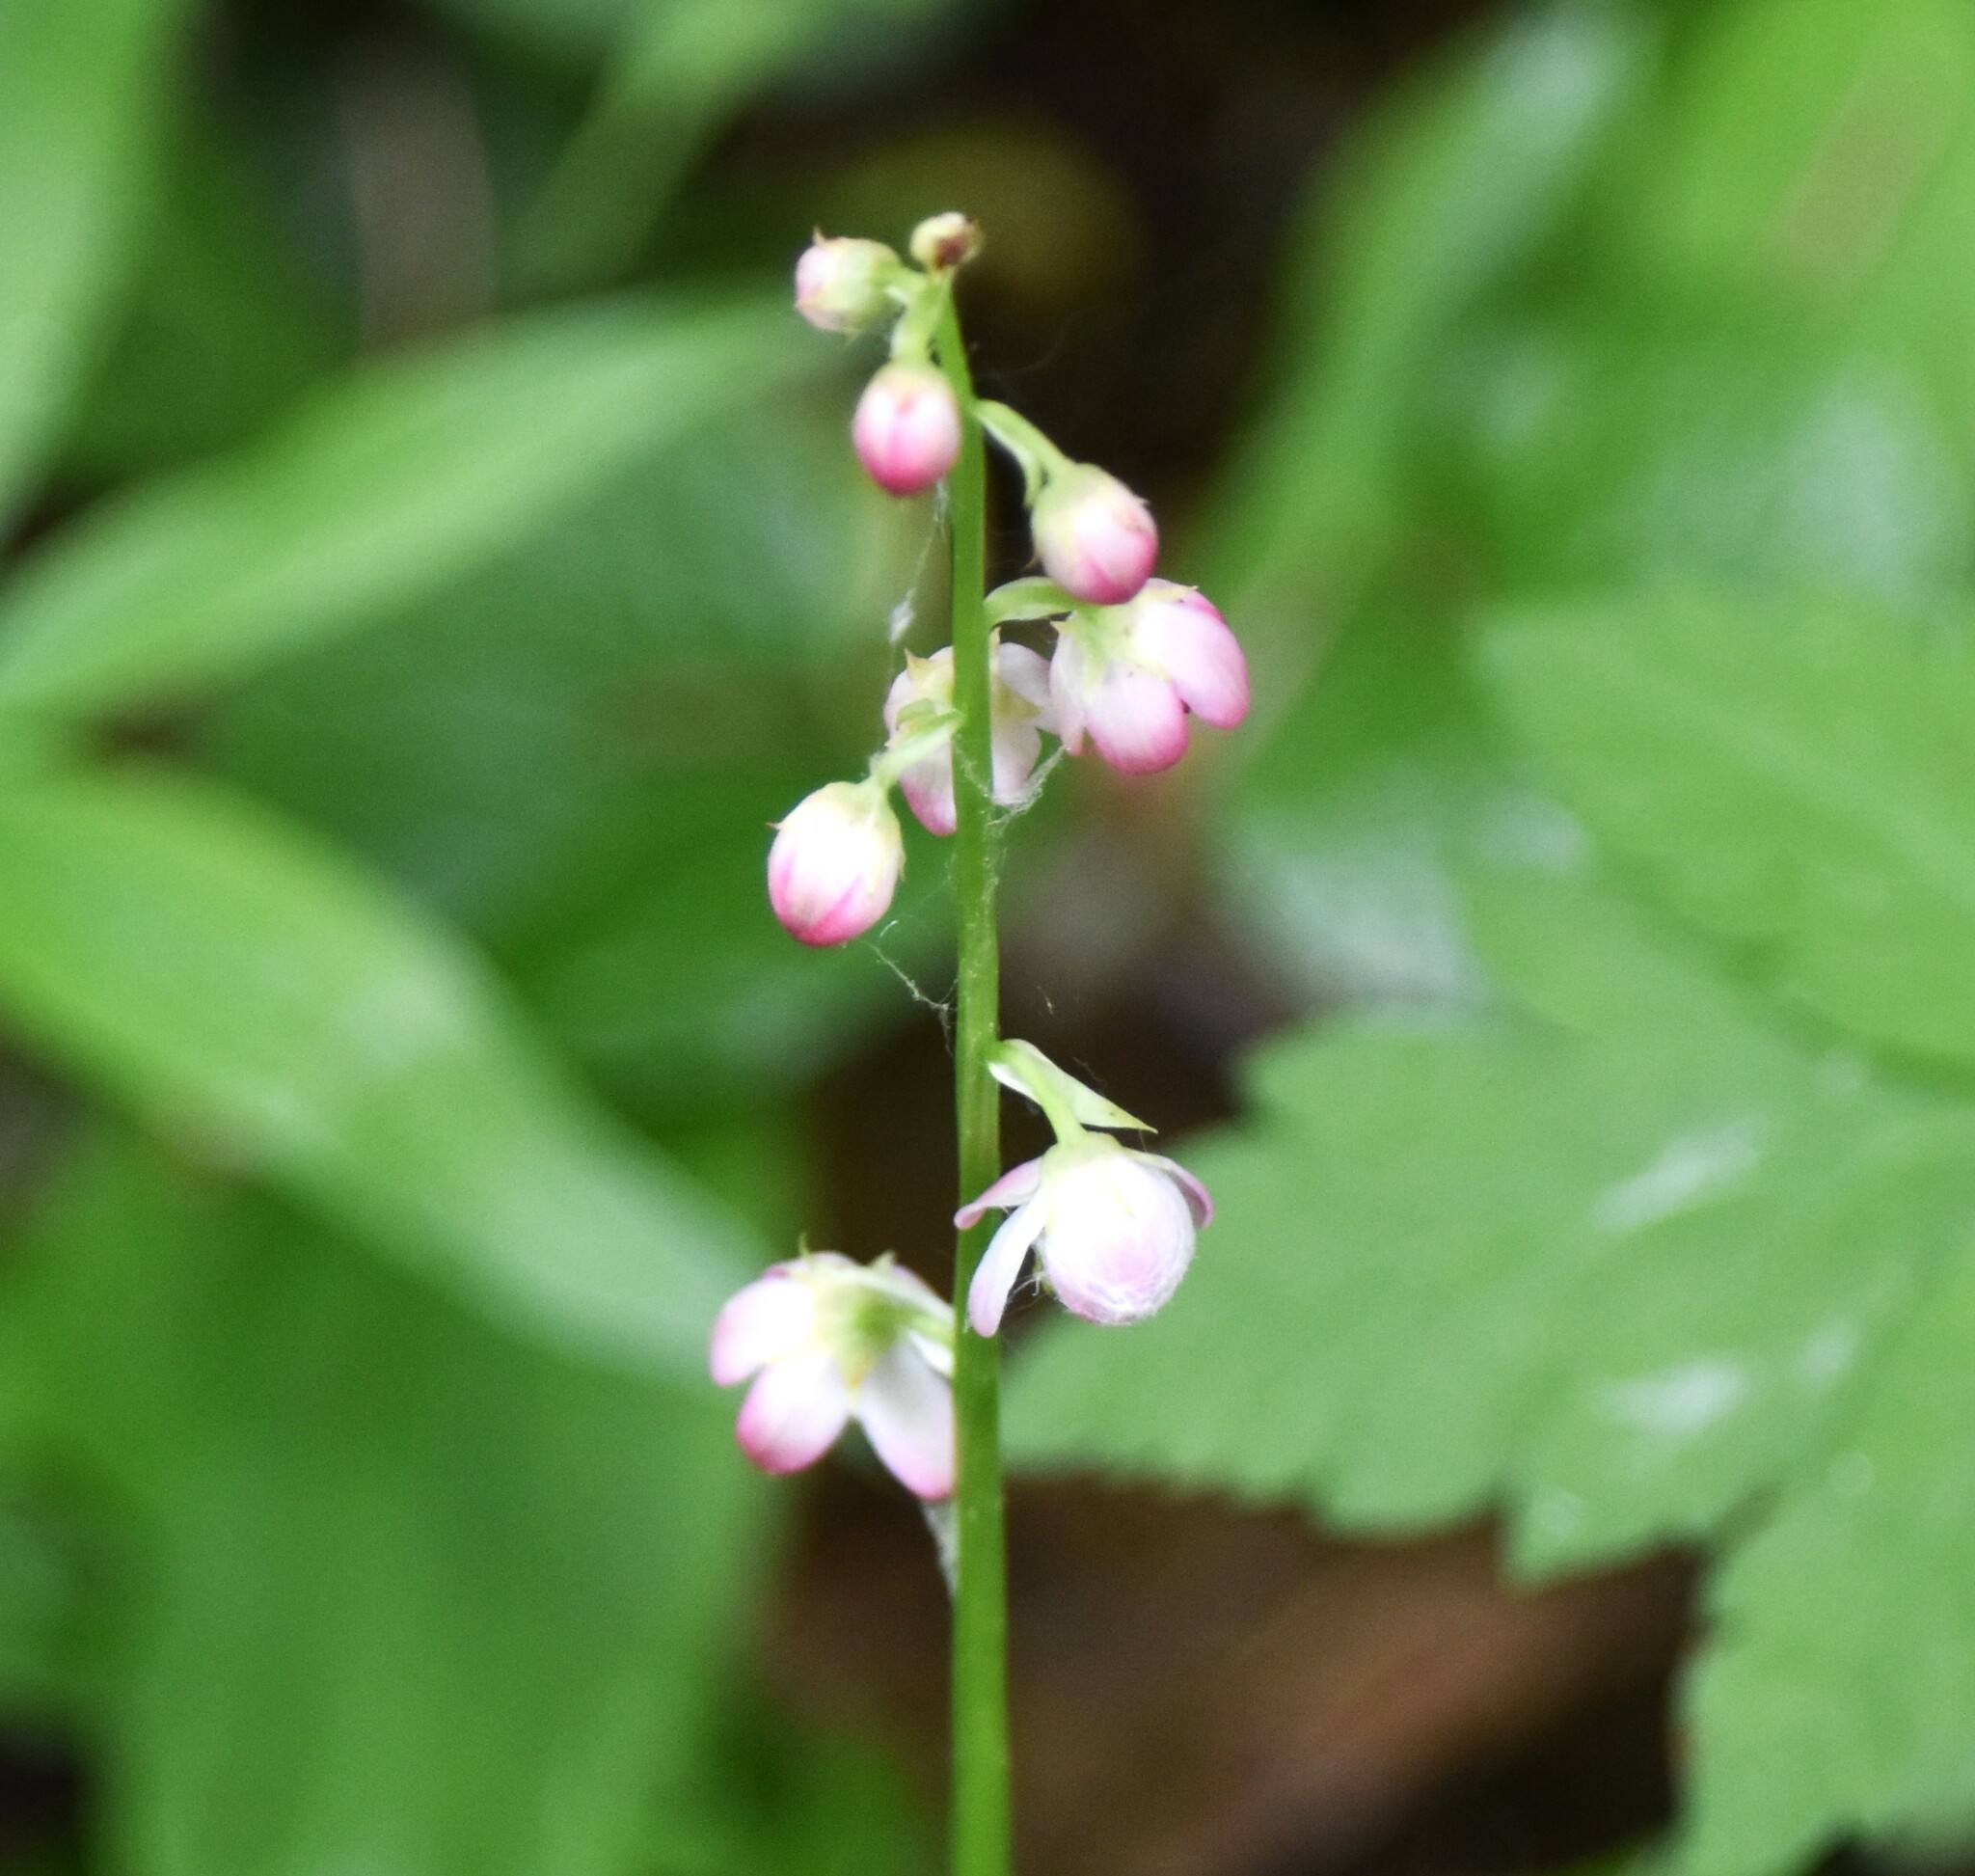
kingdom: Plantae
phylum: Tracheophyta
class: Magnoliopsida
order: Ericales
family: Ericaceae
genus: Pyrola
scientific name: Pyrola asarifolia
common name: Bog wintergreen
